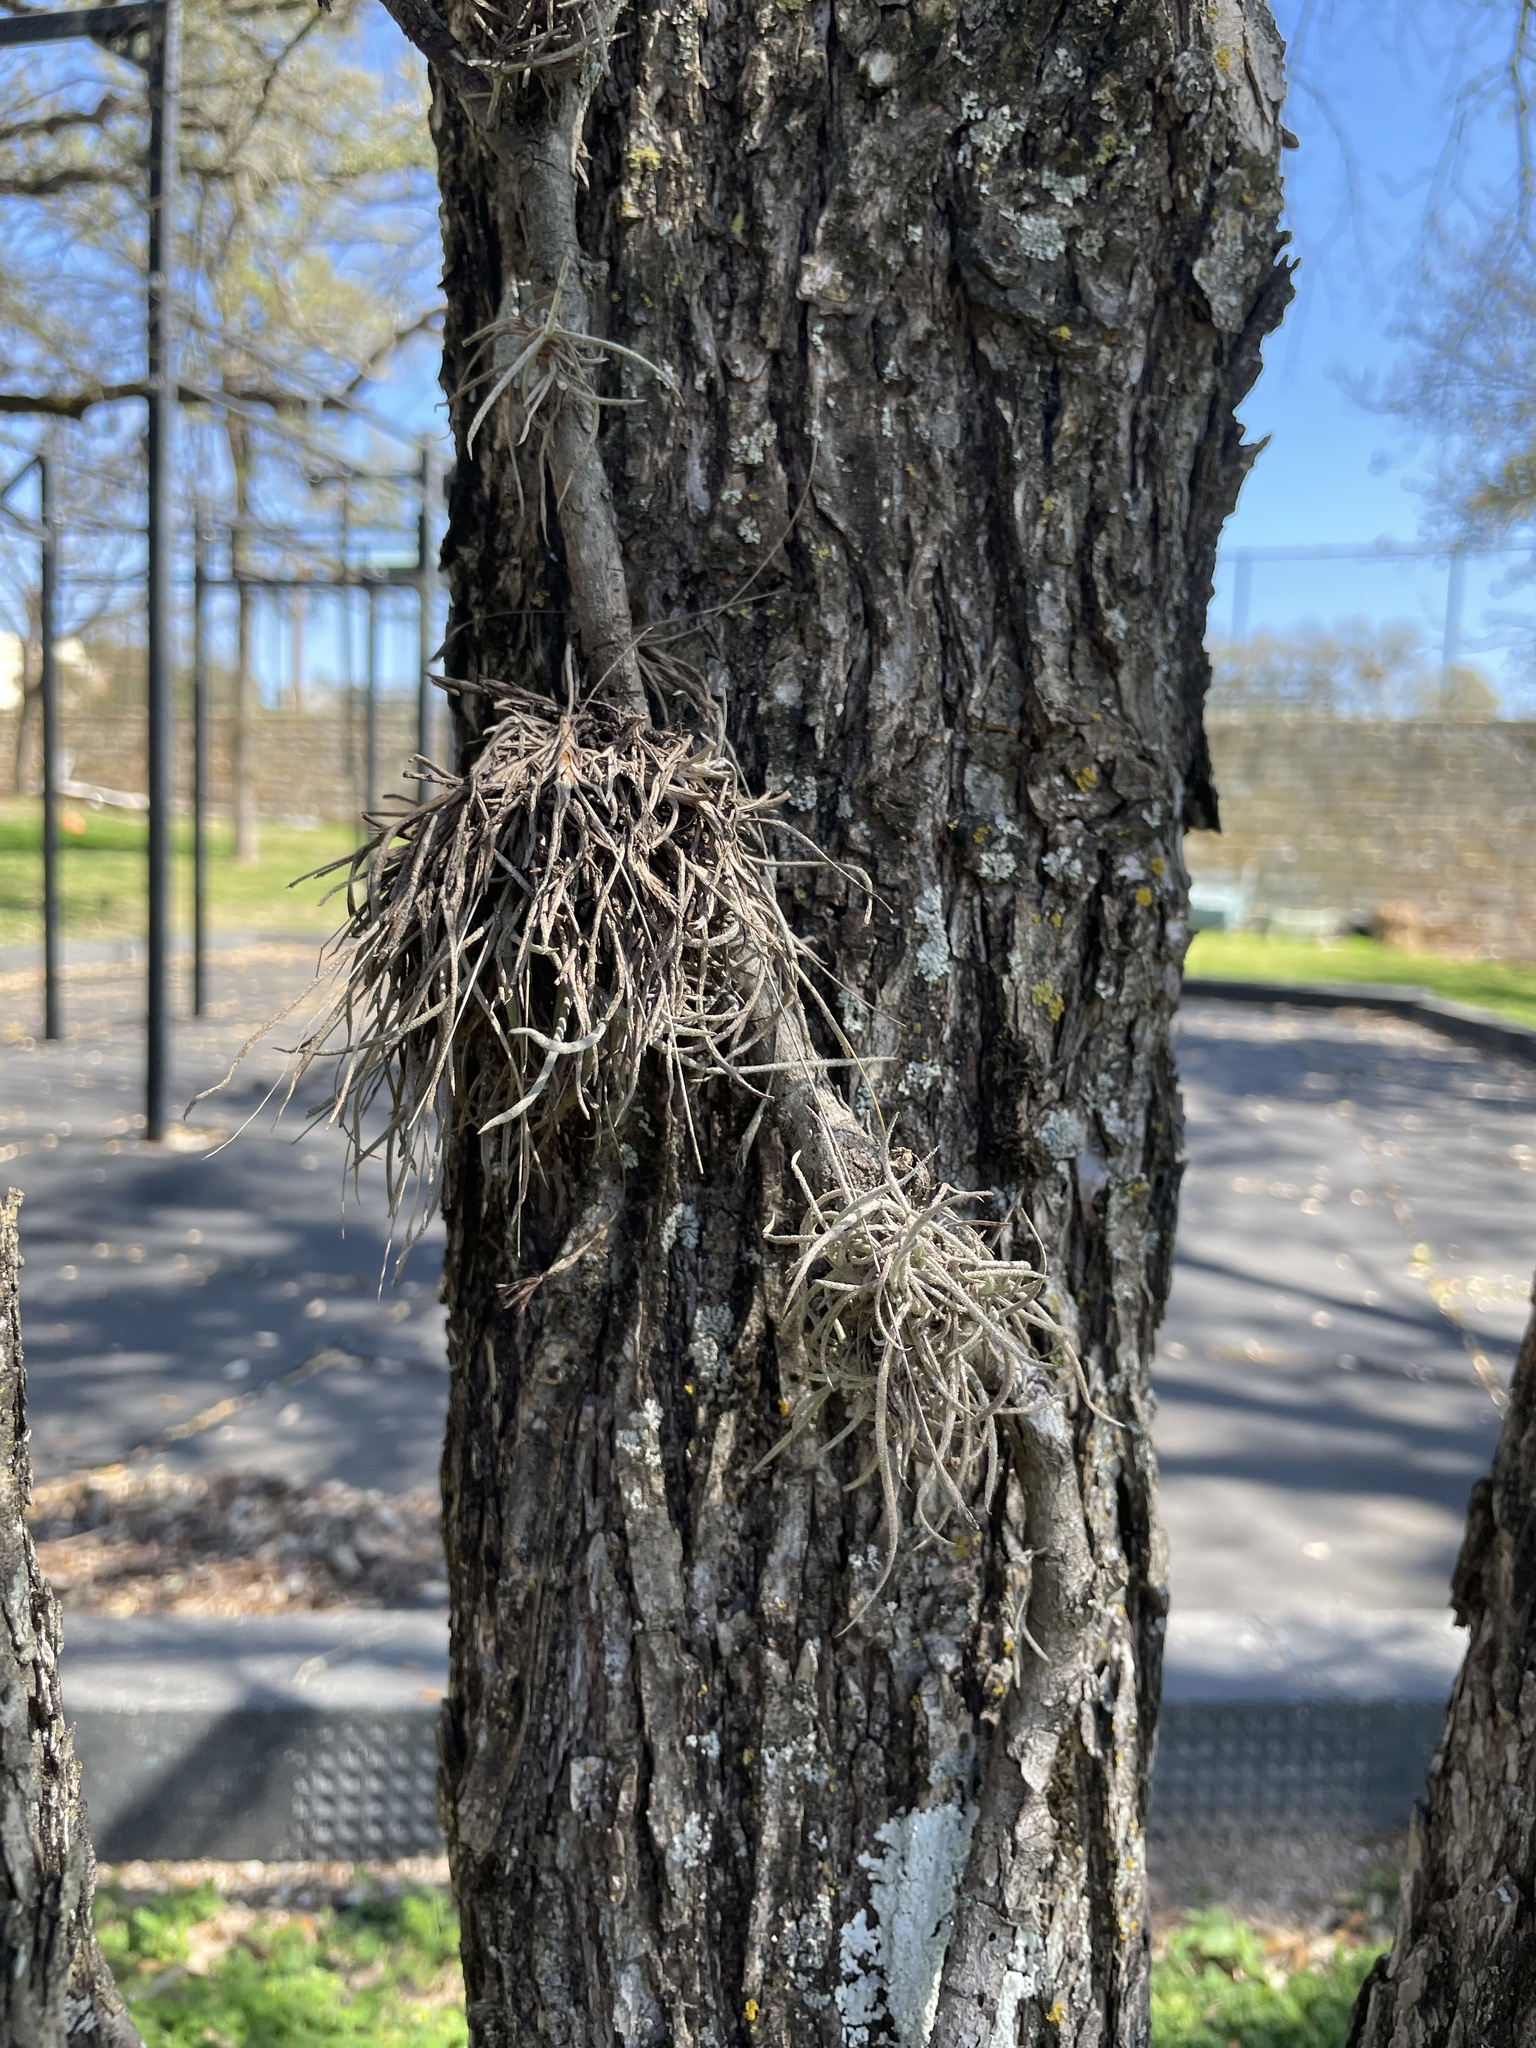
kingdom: Plantae
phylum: Tracheophyta
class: Liliopsida
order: Poales
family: Bromeliaceae
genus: Tillandsia
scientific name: Tillandsia recurvata
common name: Small ballmoss
